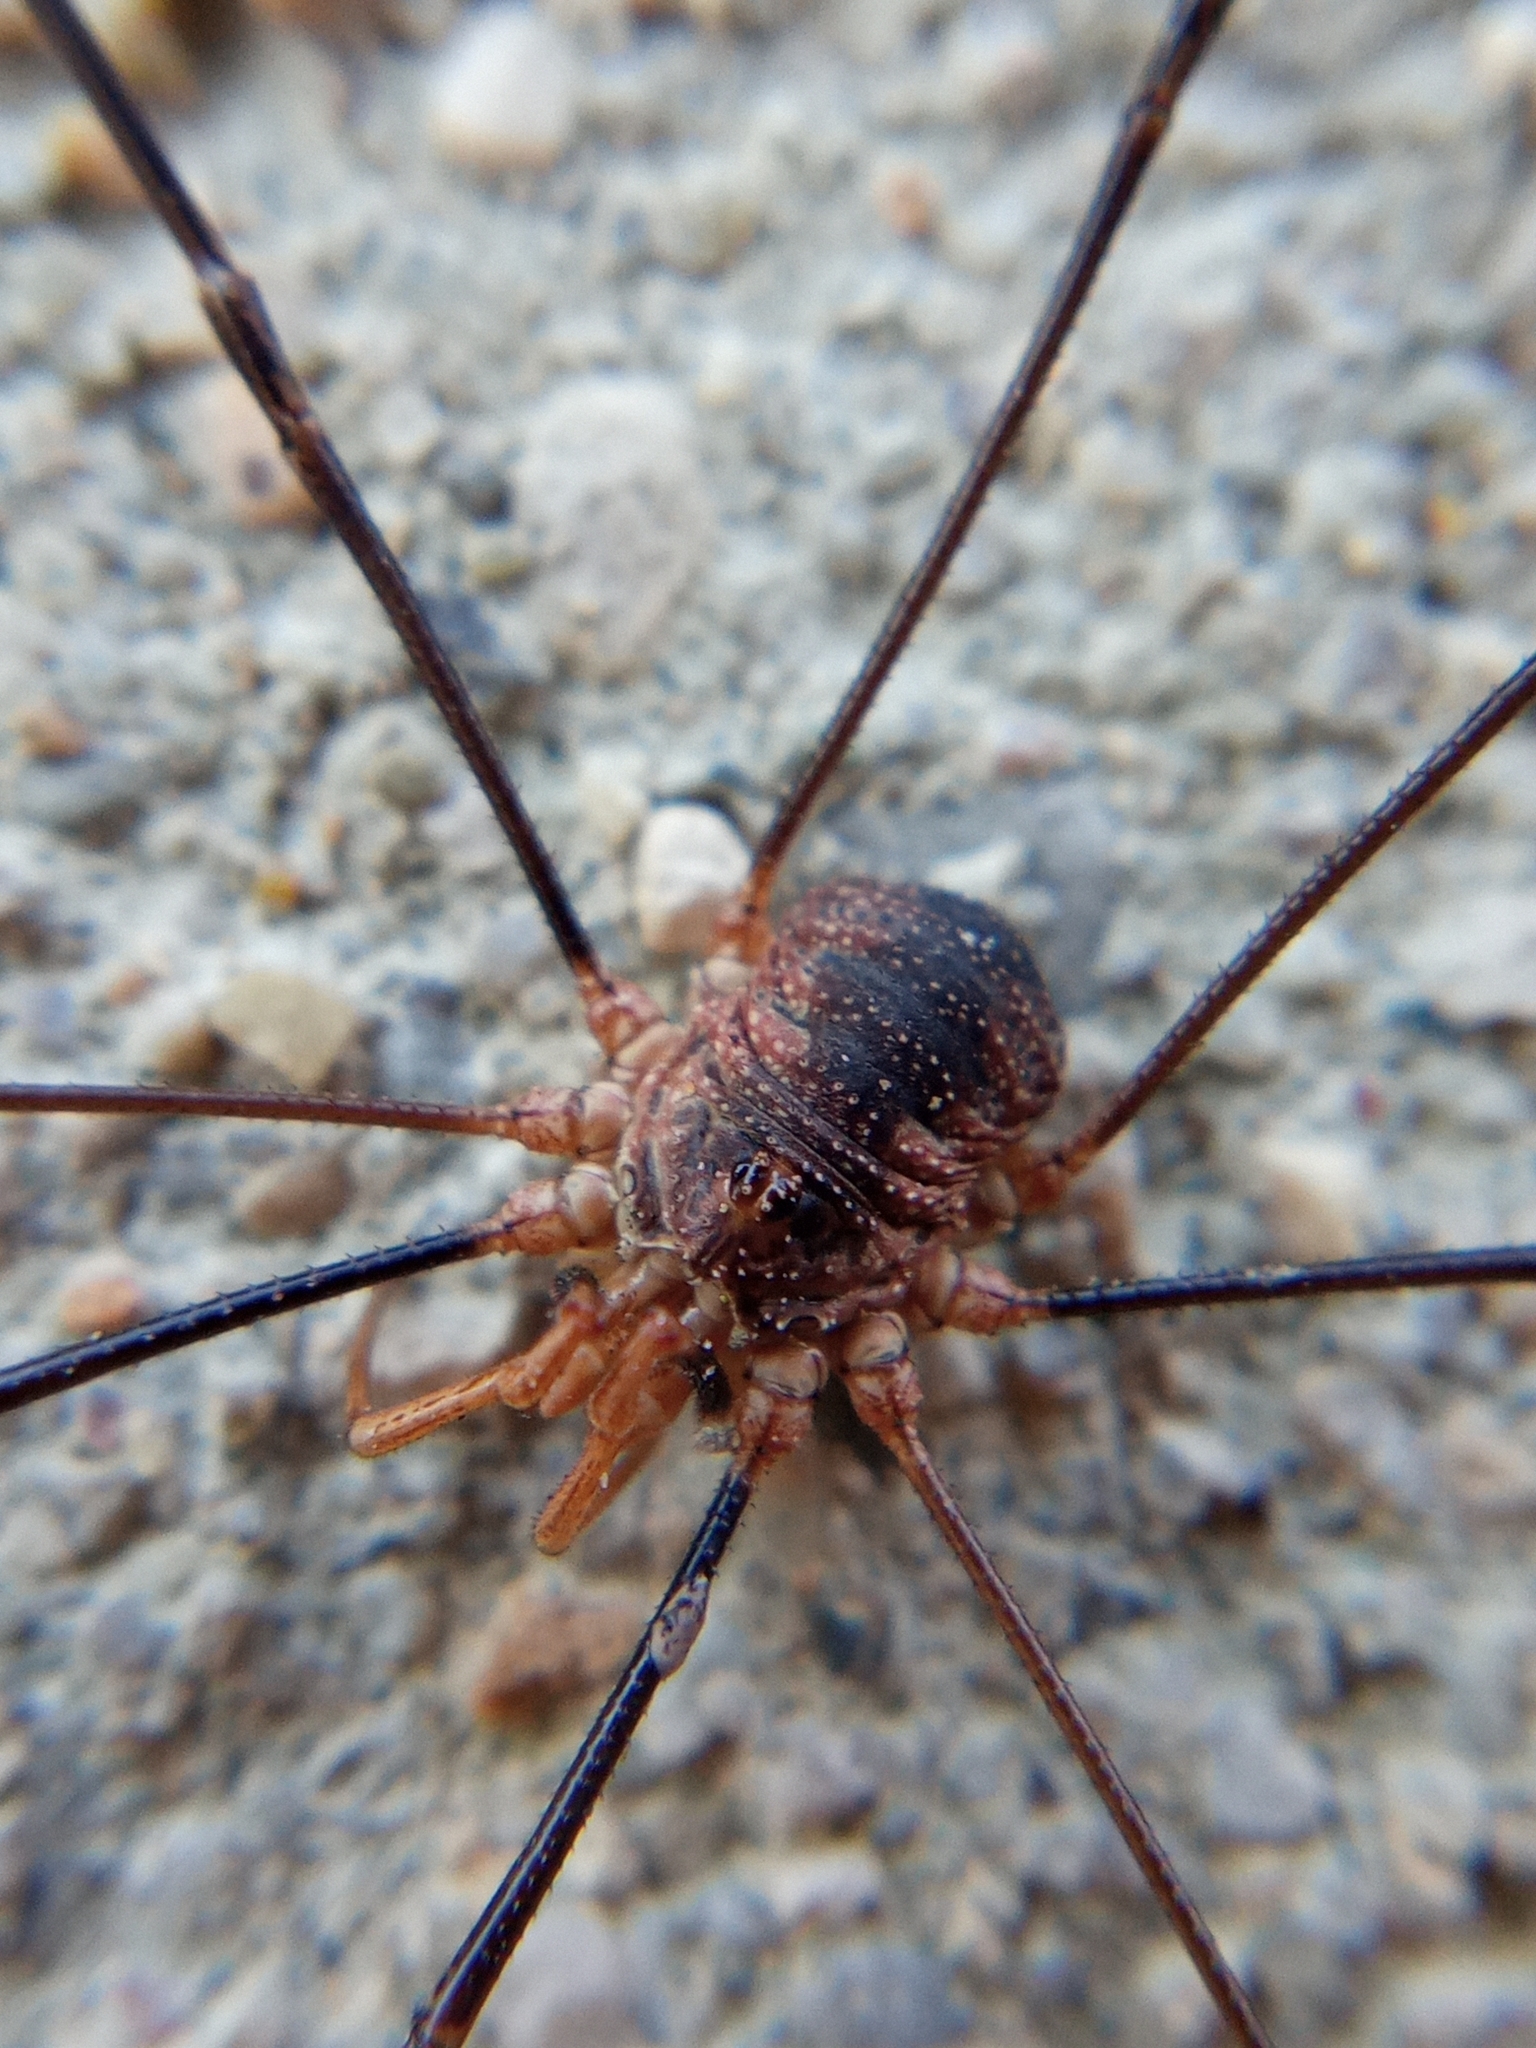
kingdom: Animalia
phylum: Arthropoda
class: Arachnida
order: Opiliones
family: Phalangiidae
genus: Phalangium
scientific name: Phalangium opilio
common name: Daddy longleg
